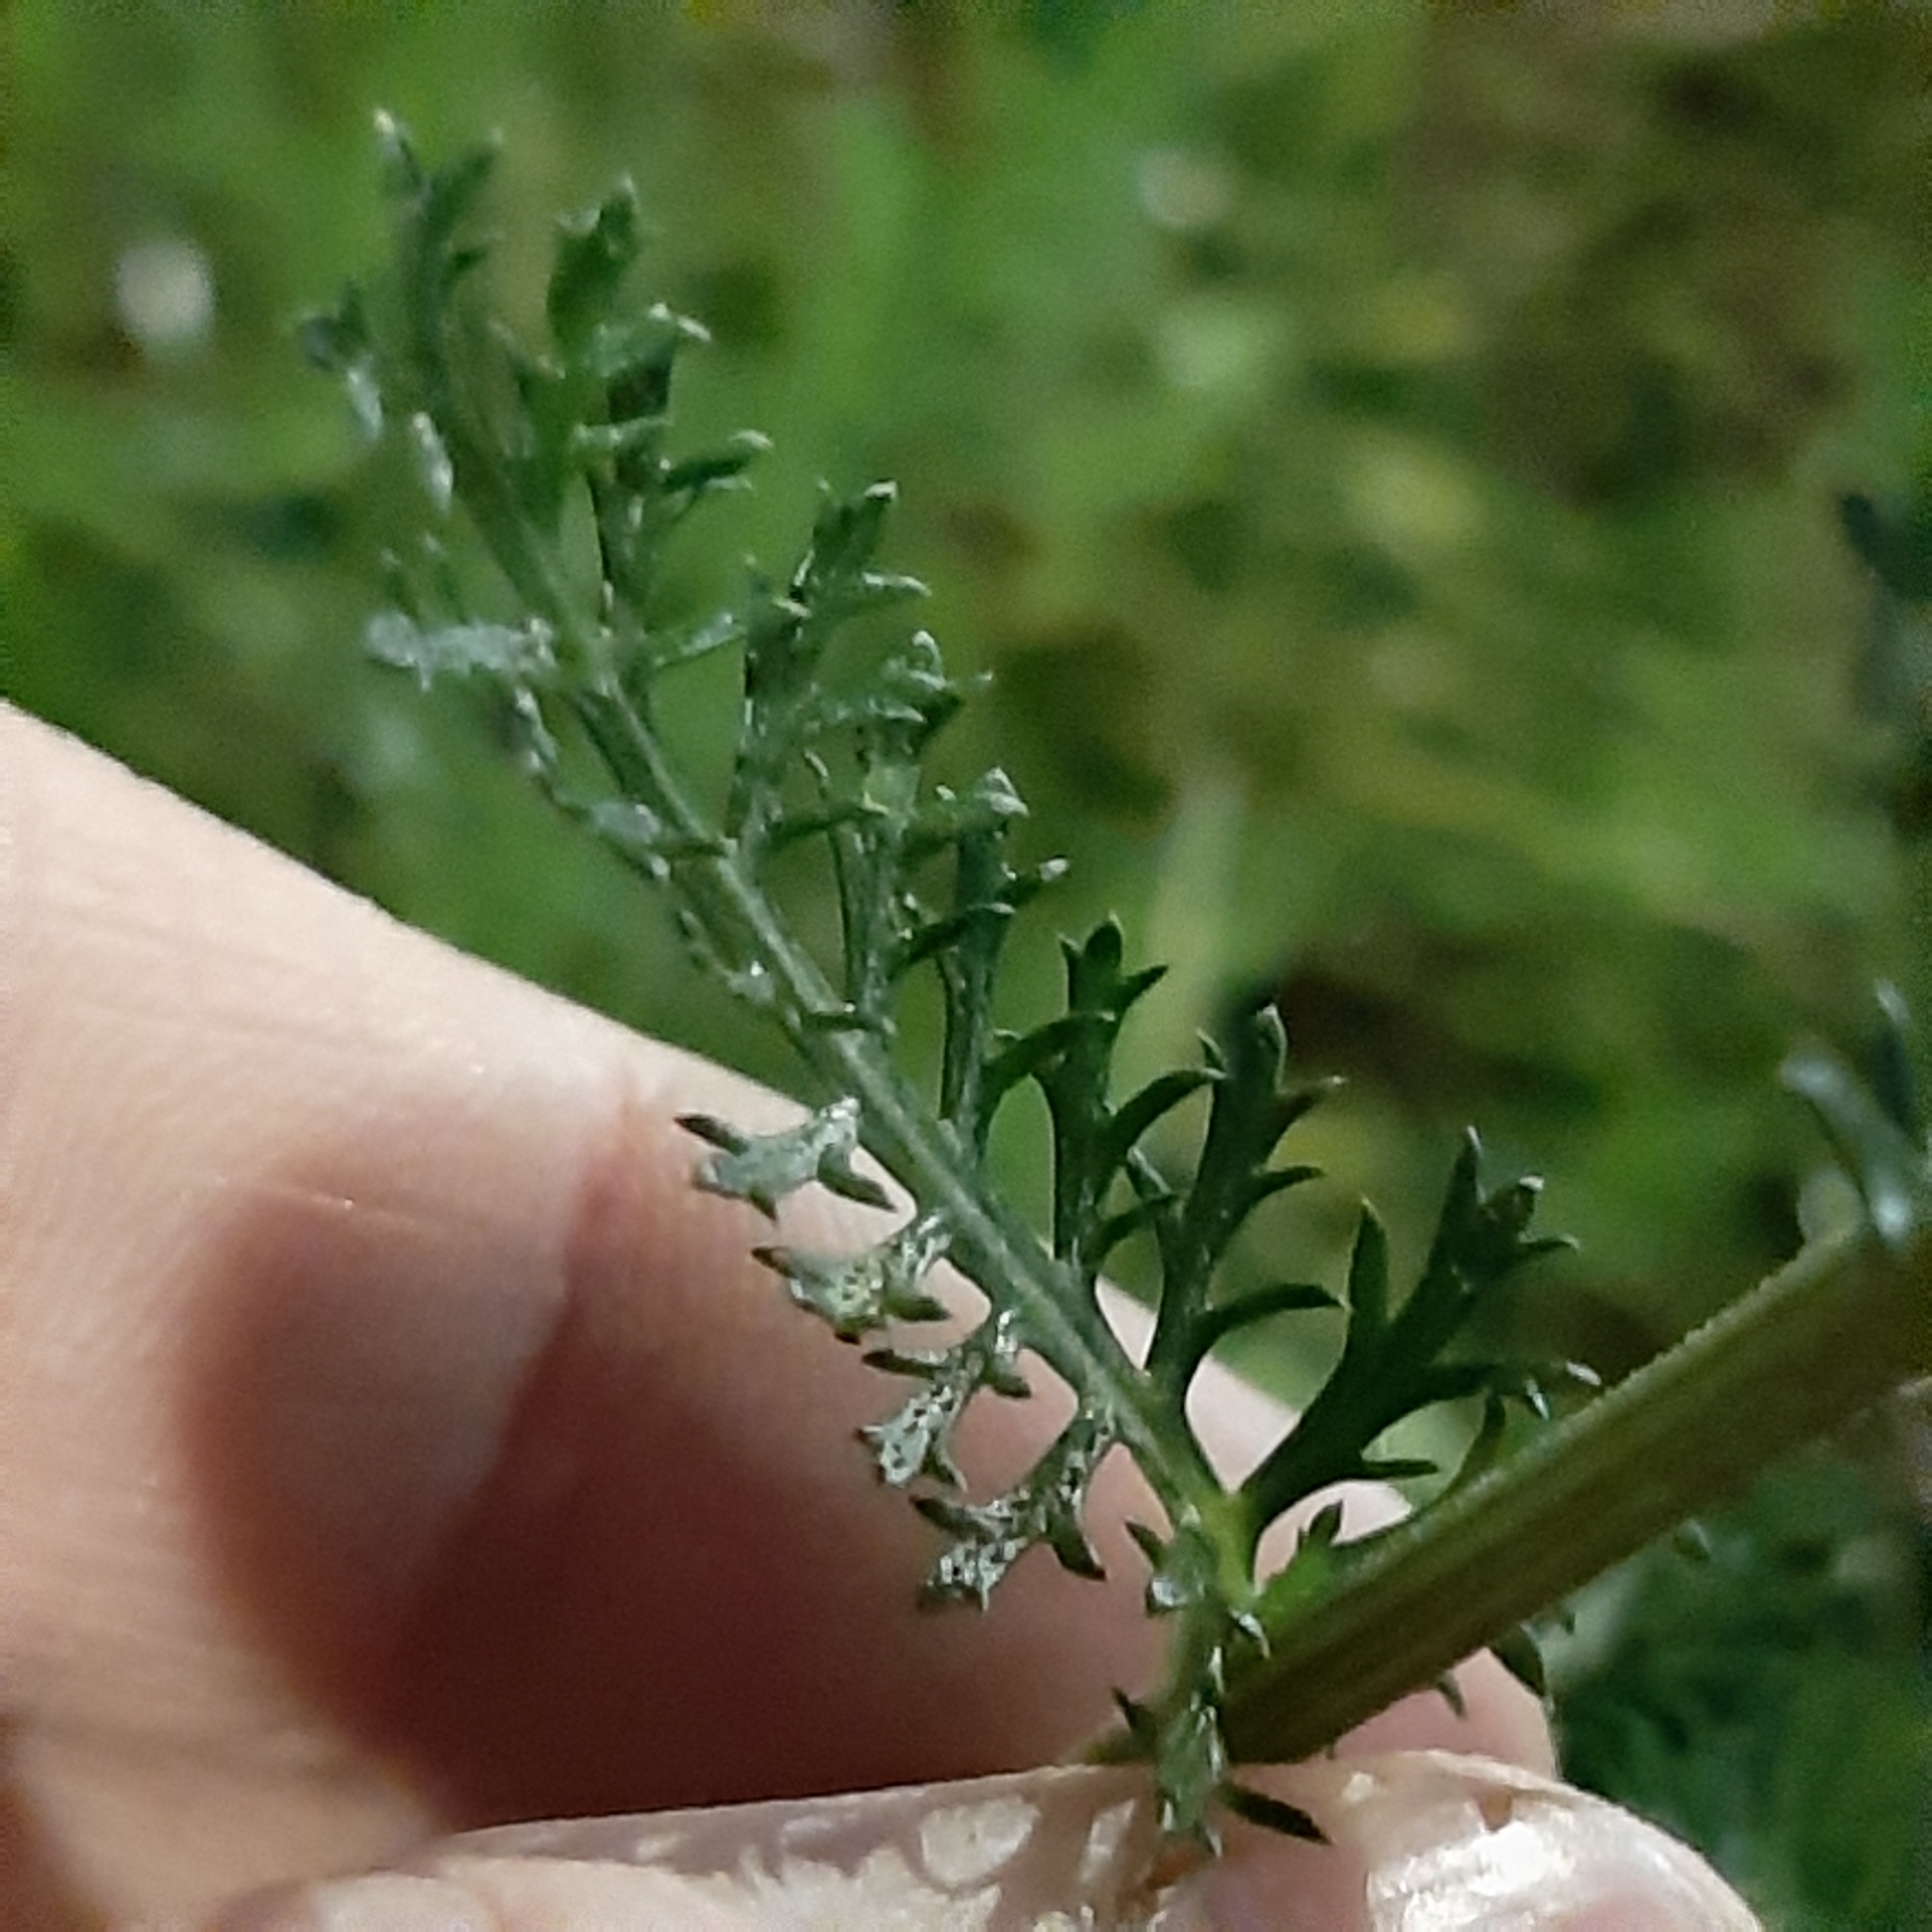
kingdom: Plantae
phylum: Tracheophyta
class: Magnoliopsida
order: Asterales
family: Asteraceae
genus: Achillea
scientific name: Achillea millefolium
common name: Yarrow
